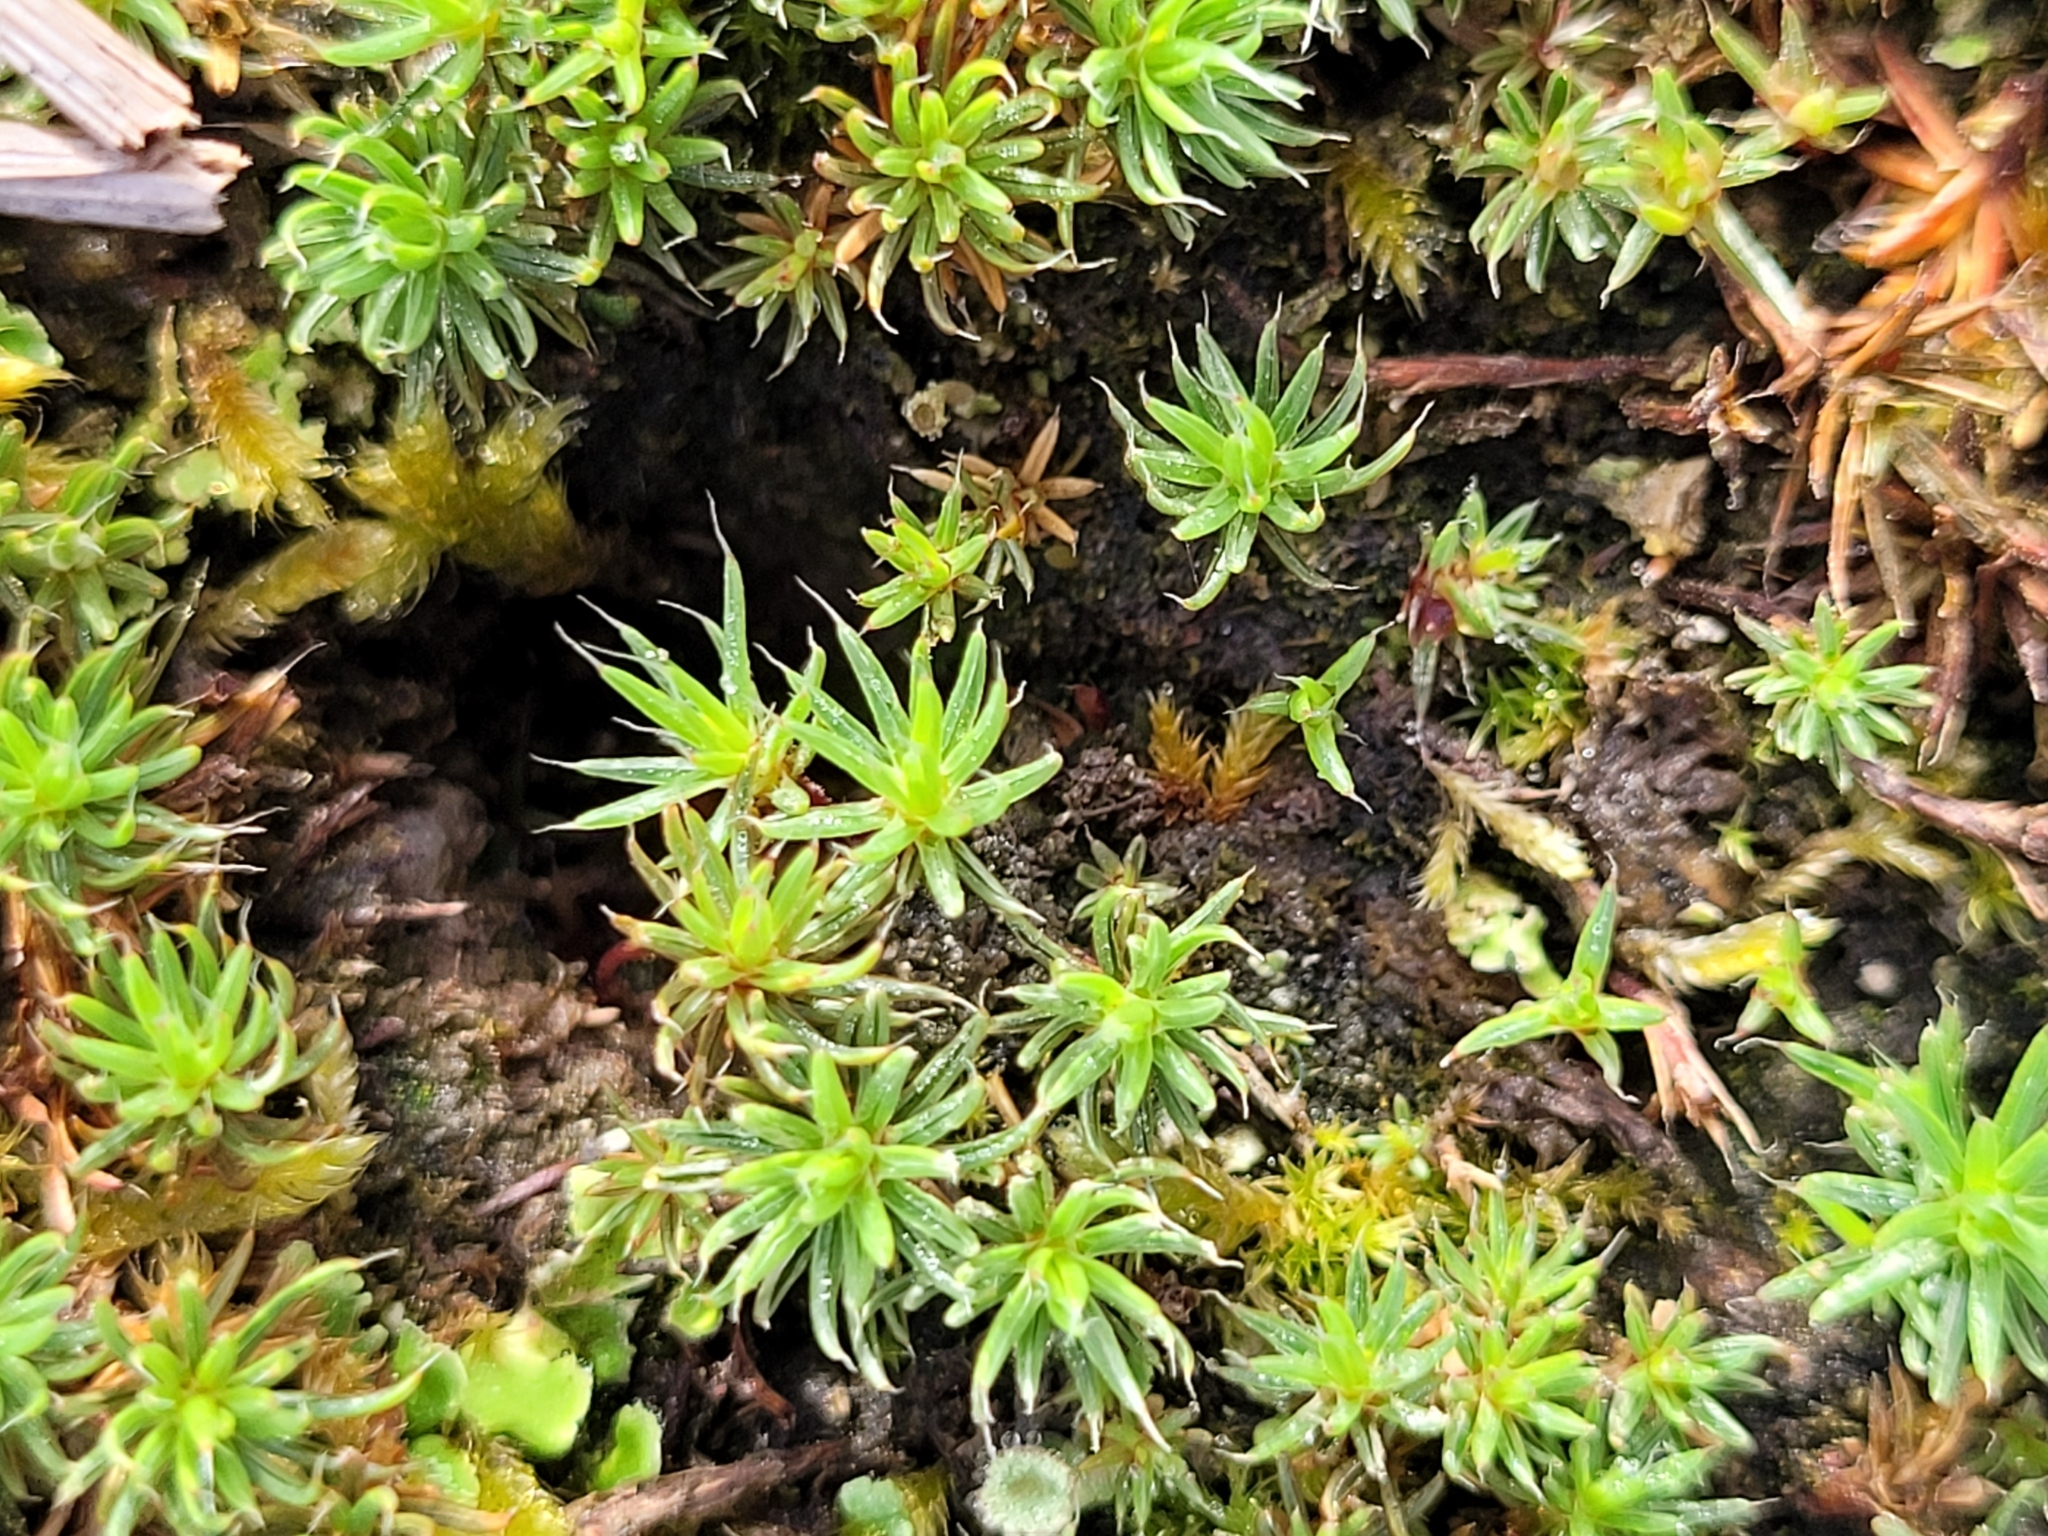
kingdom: Plantae
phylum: Bryophyta
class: Polytrichopsida
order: Polytrichales
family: Polytrichaceae
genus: Polytrichum
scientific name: Polytrichum piliferum
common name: Bristly haircap
